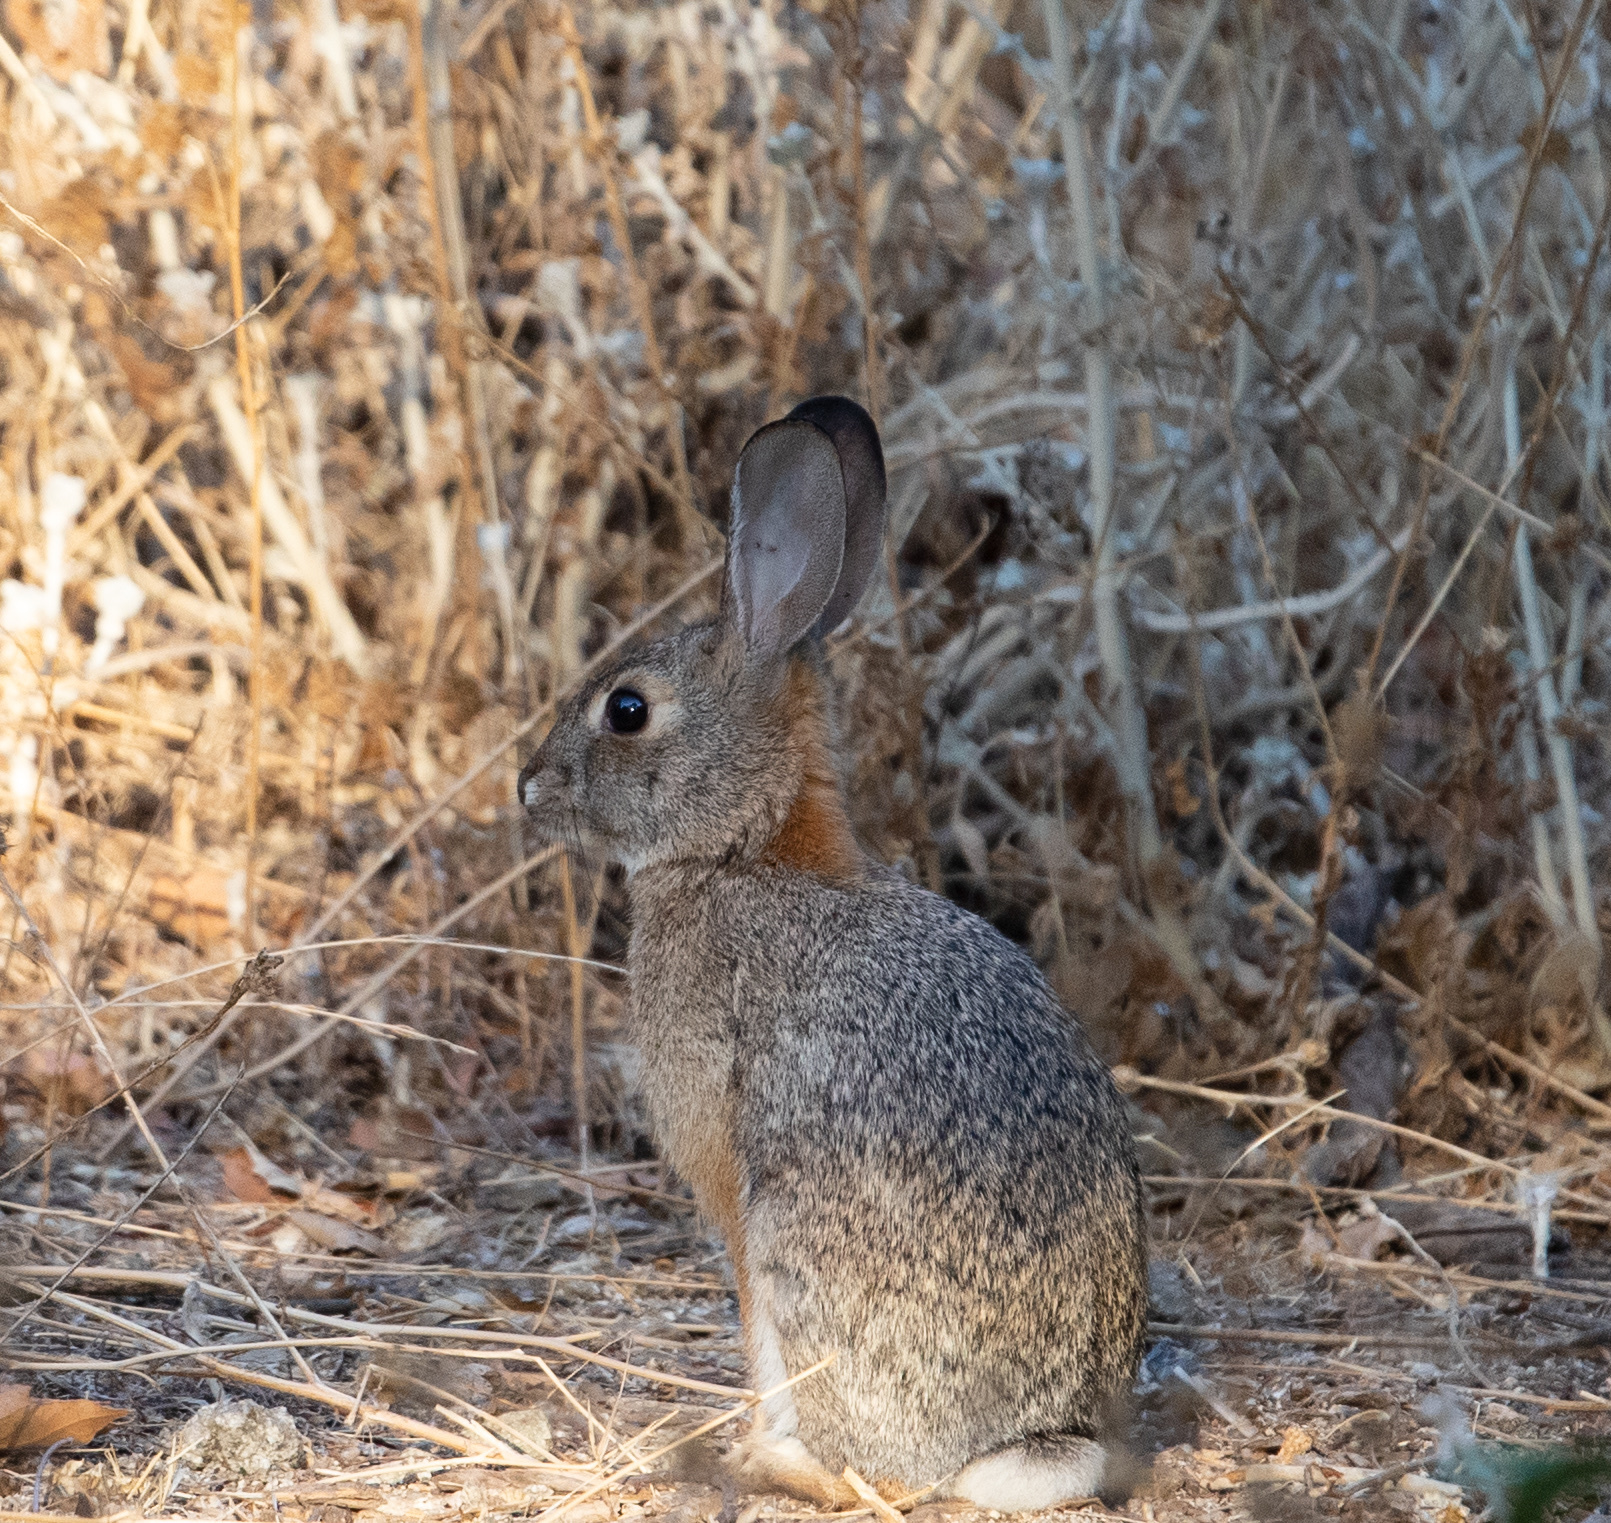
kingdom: Animalia
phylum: Chordata
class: Mammalia
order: Lagomorpha
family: Leporidae
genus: Sylvilagus
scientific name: Sylvilagus audubonii
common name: Desert cottontail
